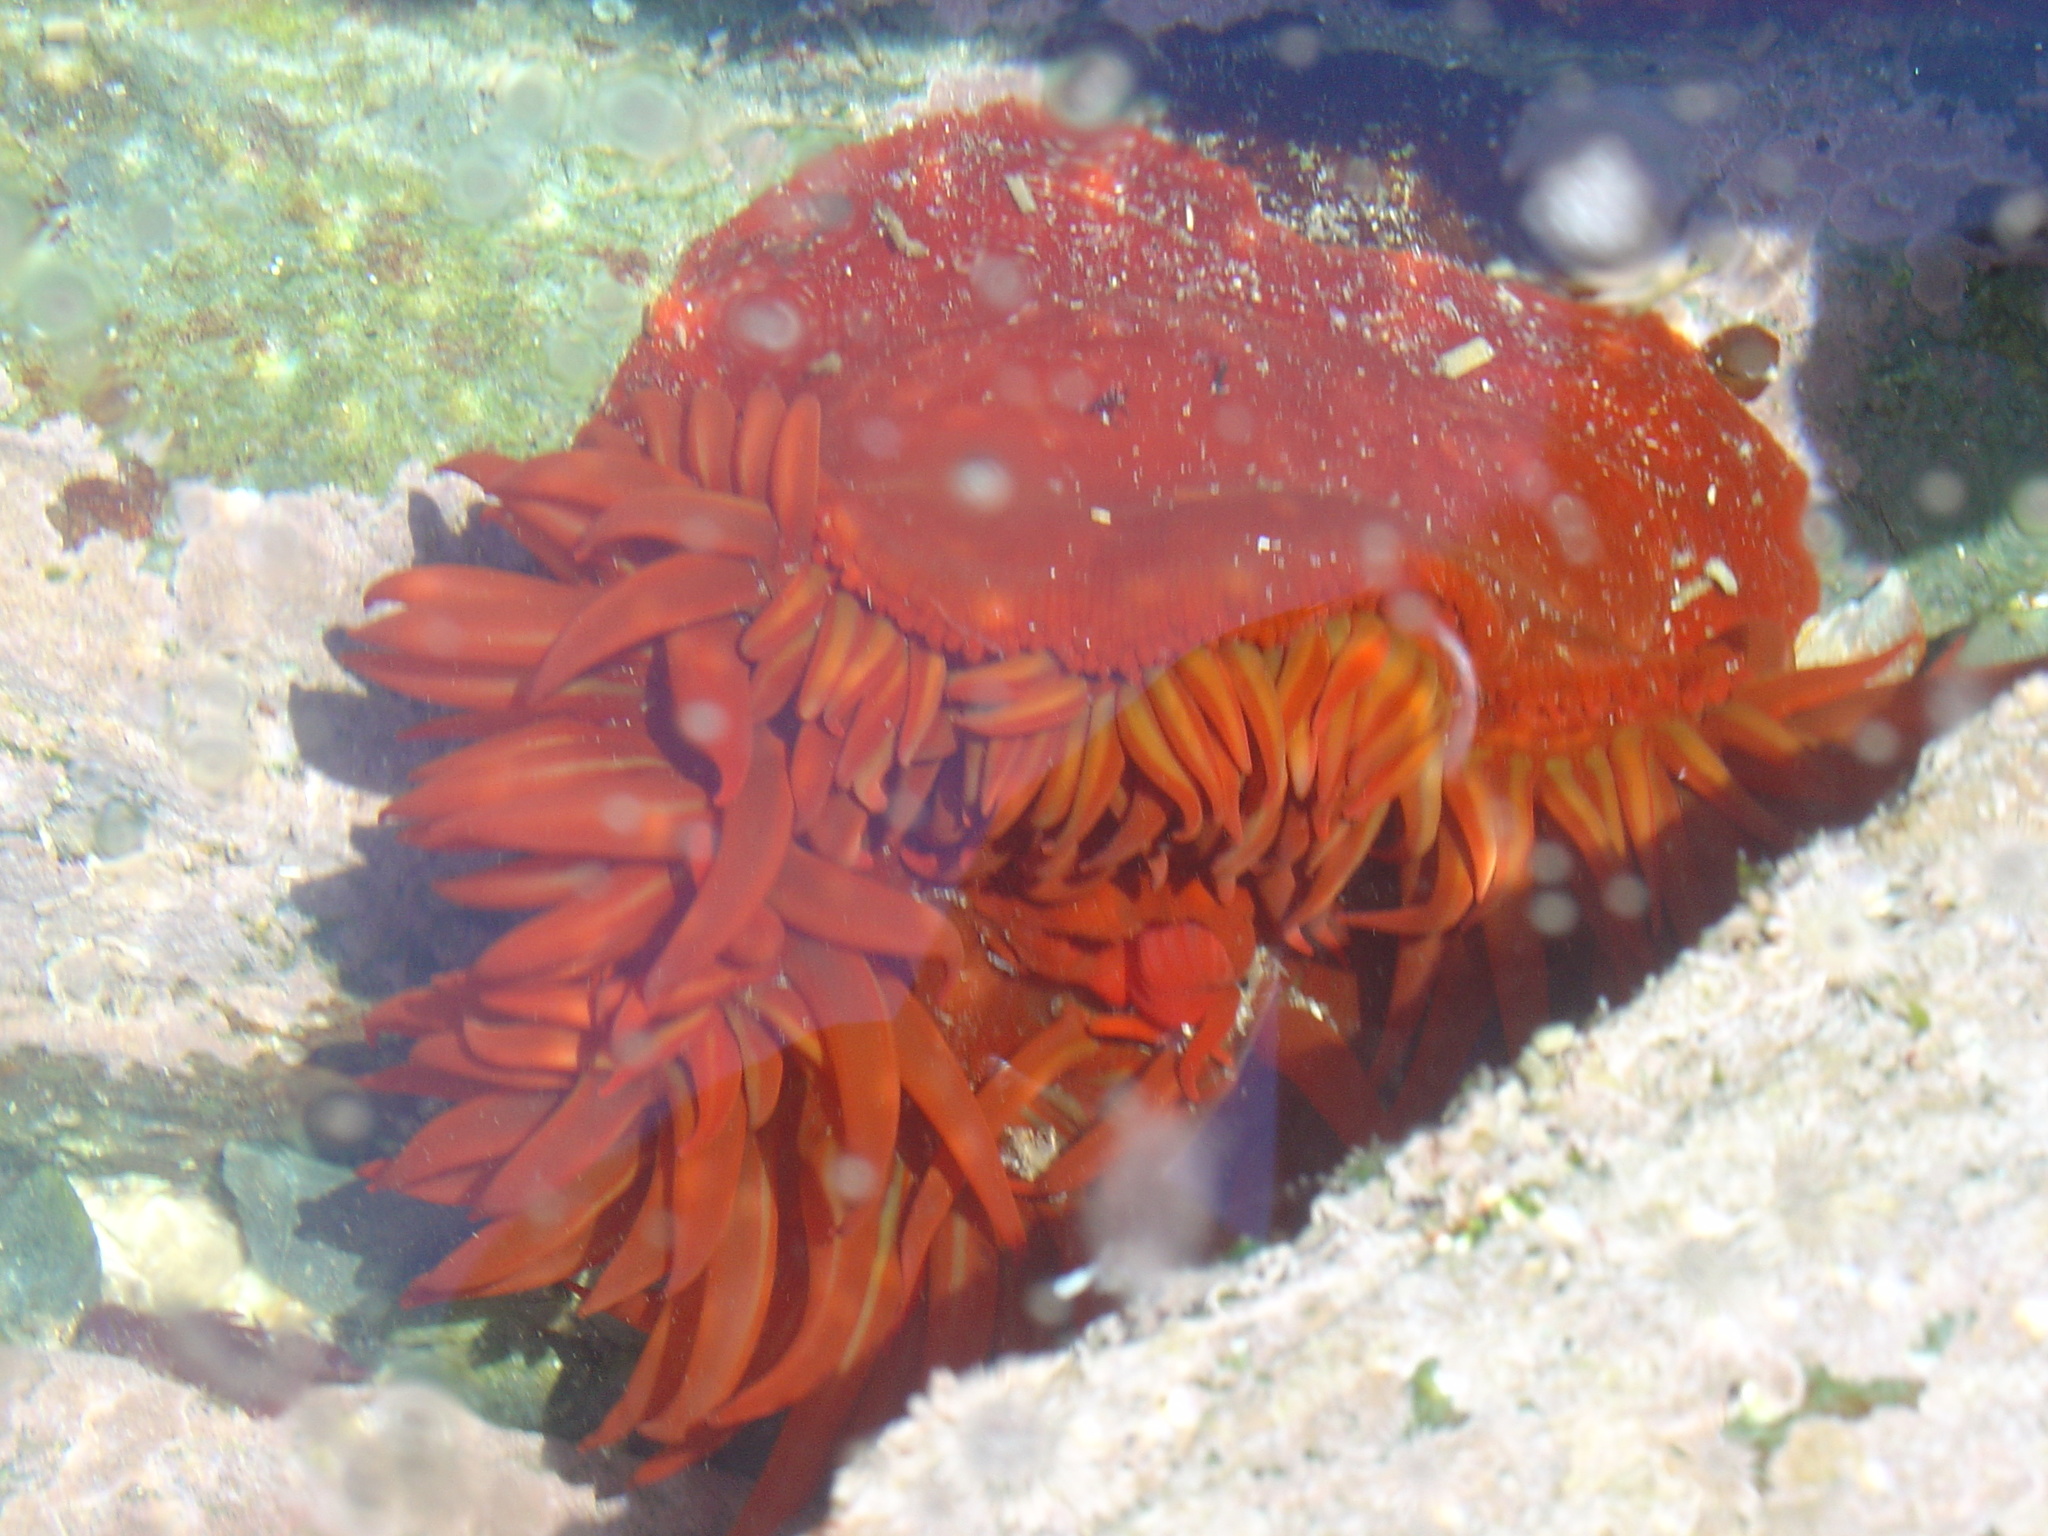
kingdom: Animalia
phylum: Cnidaria
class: Anthozoa
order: Actiniaria
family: Actiniidae
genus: Pseudactinia
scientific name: Pseudactinia flagellifera
